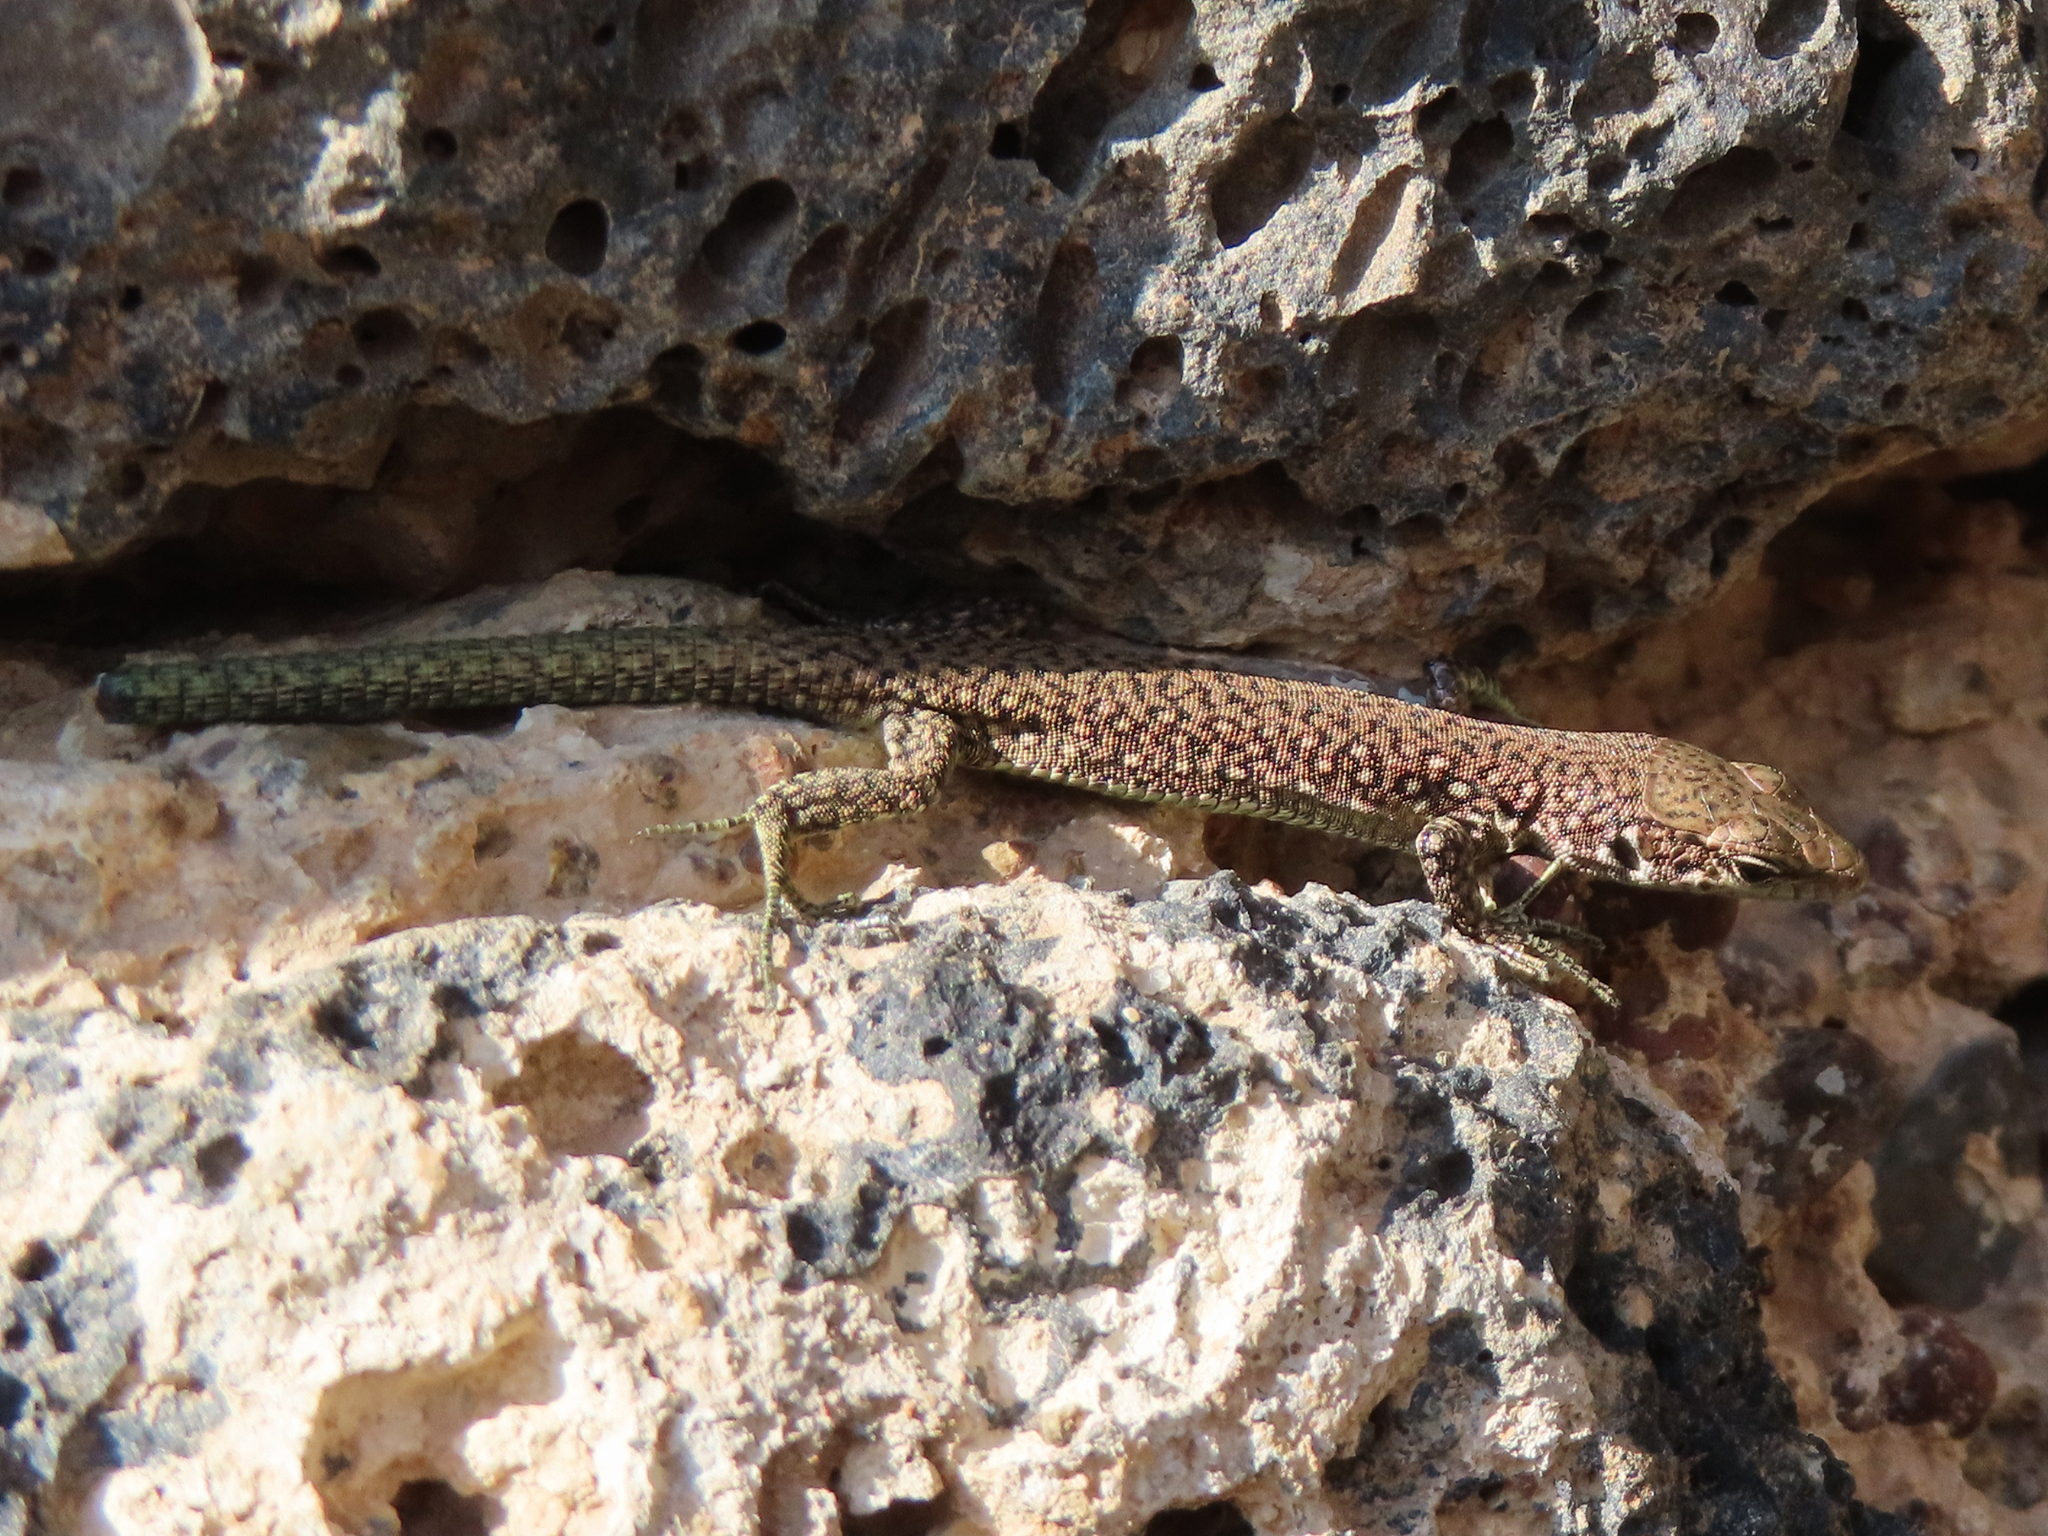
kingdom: Animalia
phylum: Chordata
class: Squamata
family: Lacertidae
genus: Darevskia
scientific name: Darevskia unisexualis
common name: Unisexual lizard
